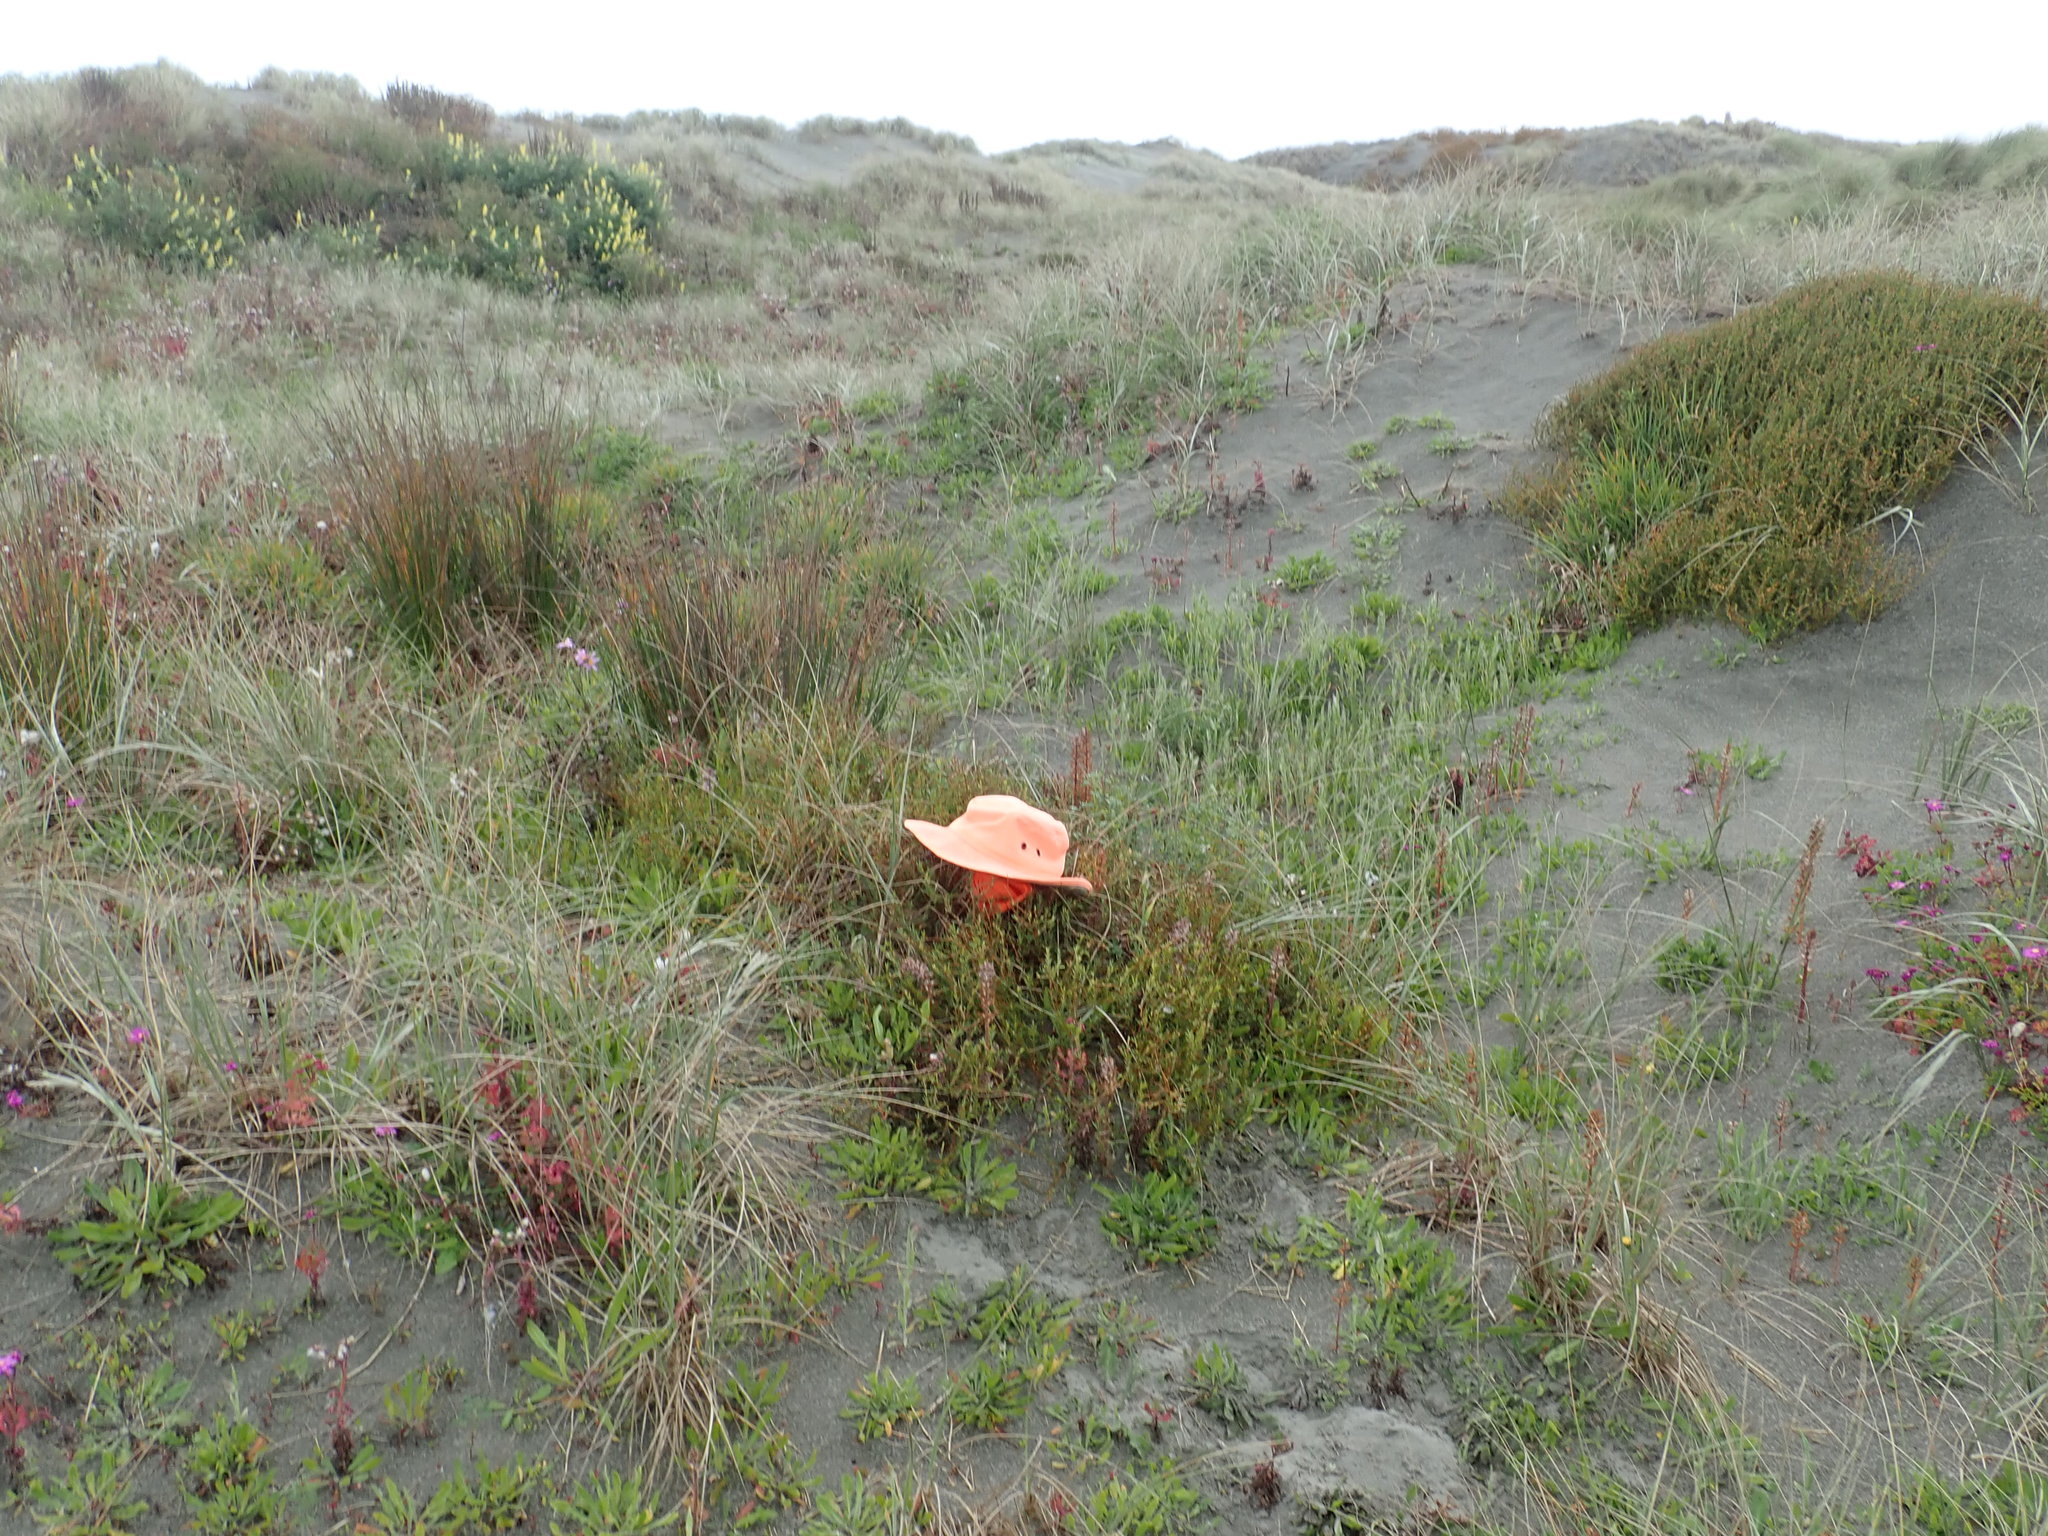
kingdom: Plantae
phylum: Tracheophyta
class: Magnoliopsida
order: Gentianales
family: Rubiaceae
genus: Coprosma
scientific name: Coprosma acerosa
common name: Sand coprosma
